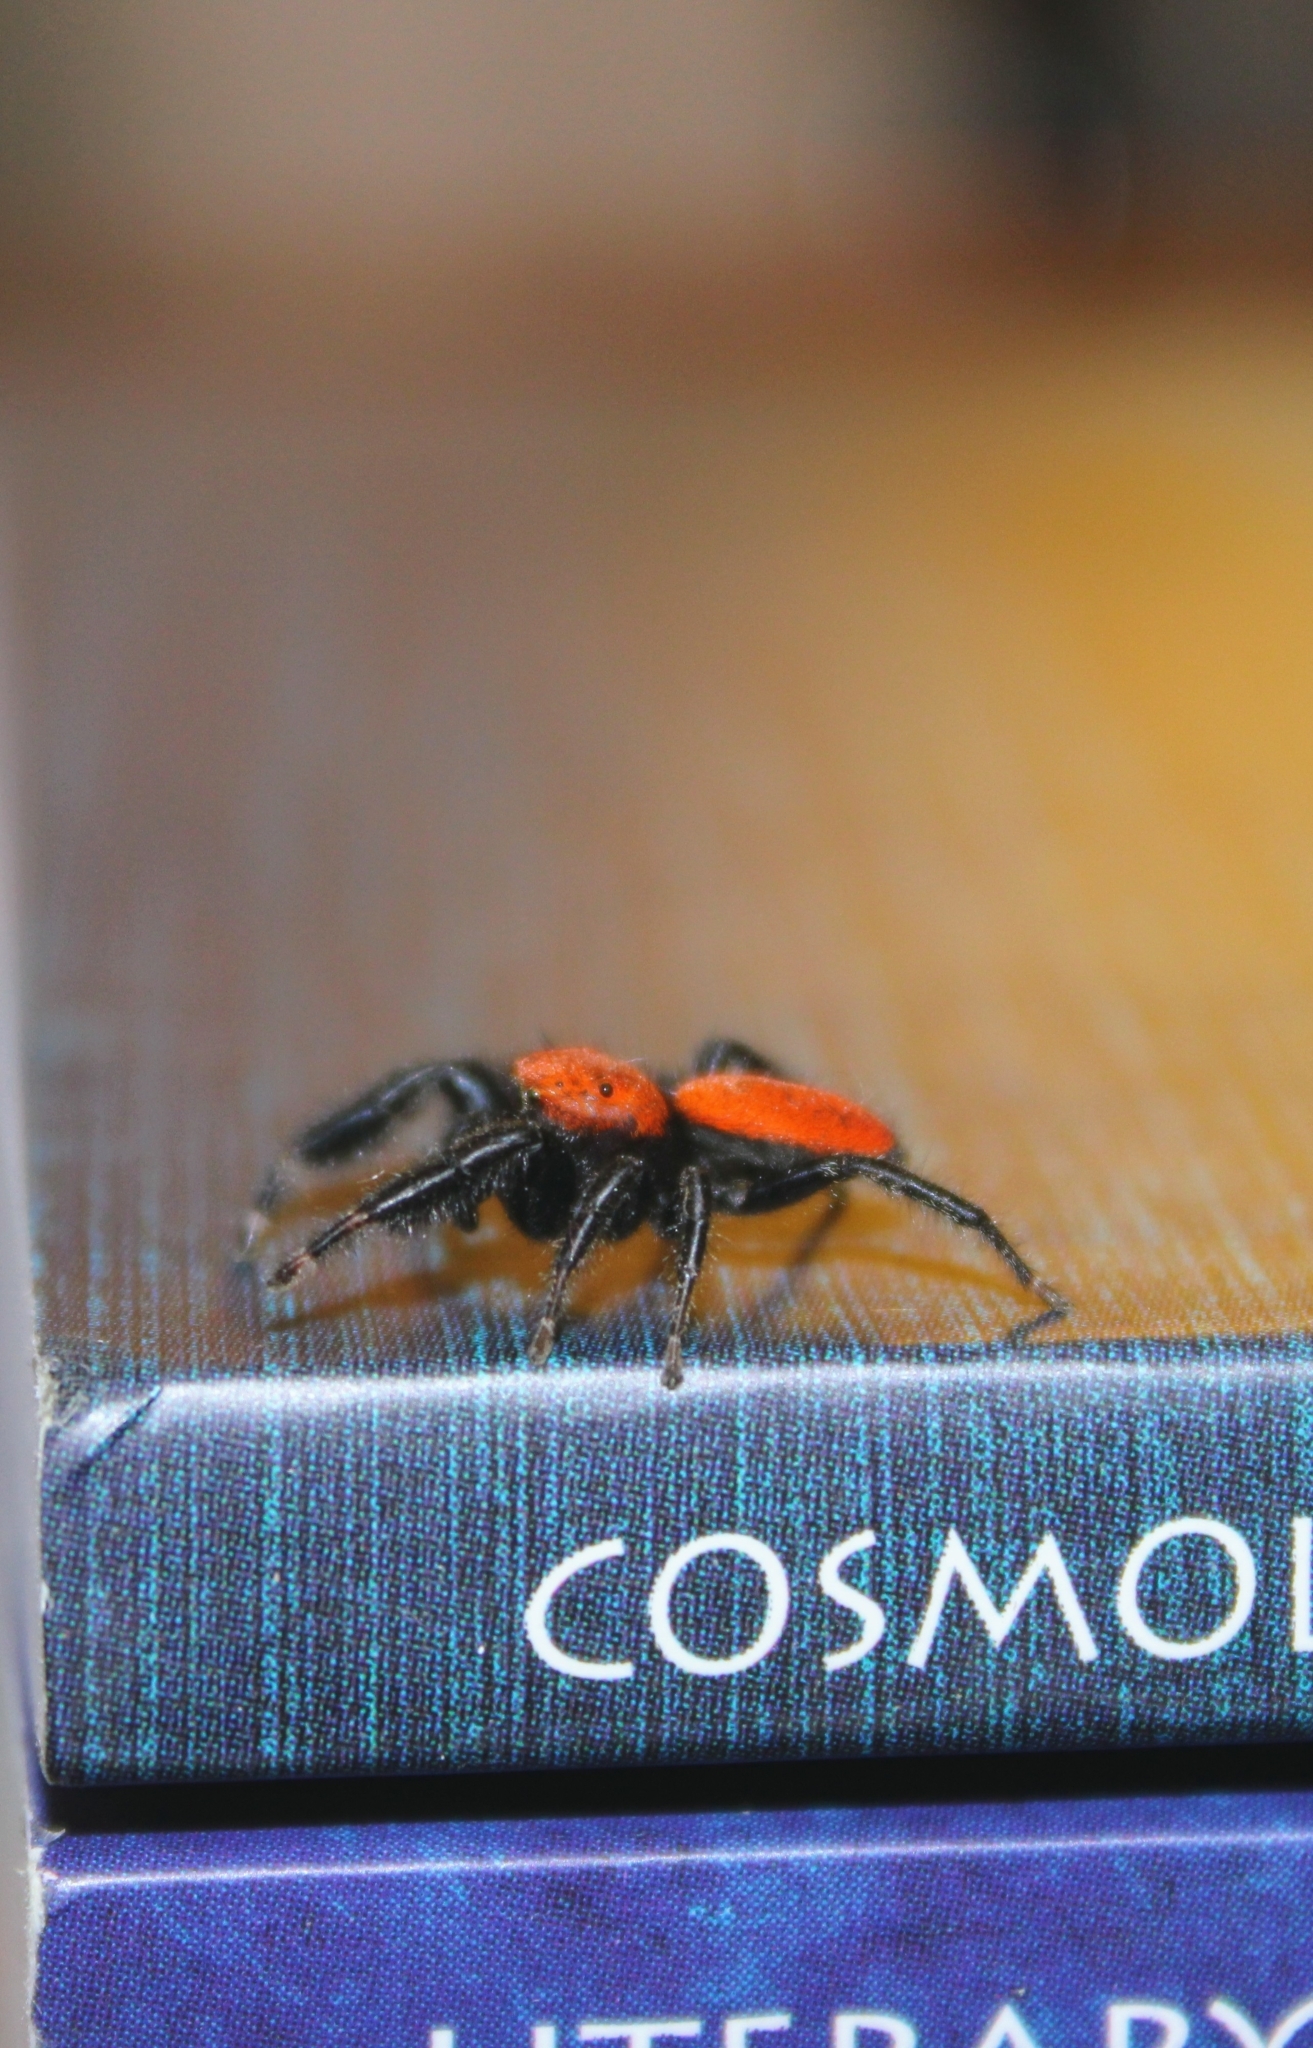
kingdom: Animalia
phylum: Arthropoda
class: Arachnida
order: Araneae
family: Salticidae
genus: Phidippus
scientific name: Phidippus cardinalis
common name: Cardinal jumper
